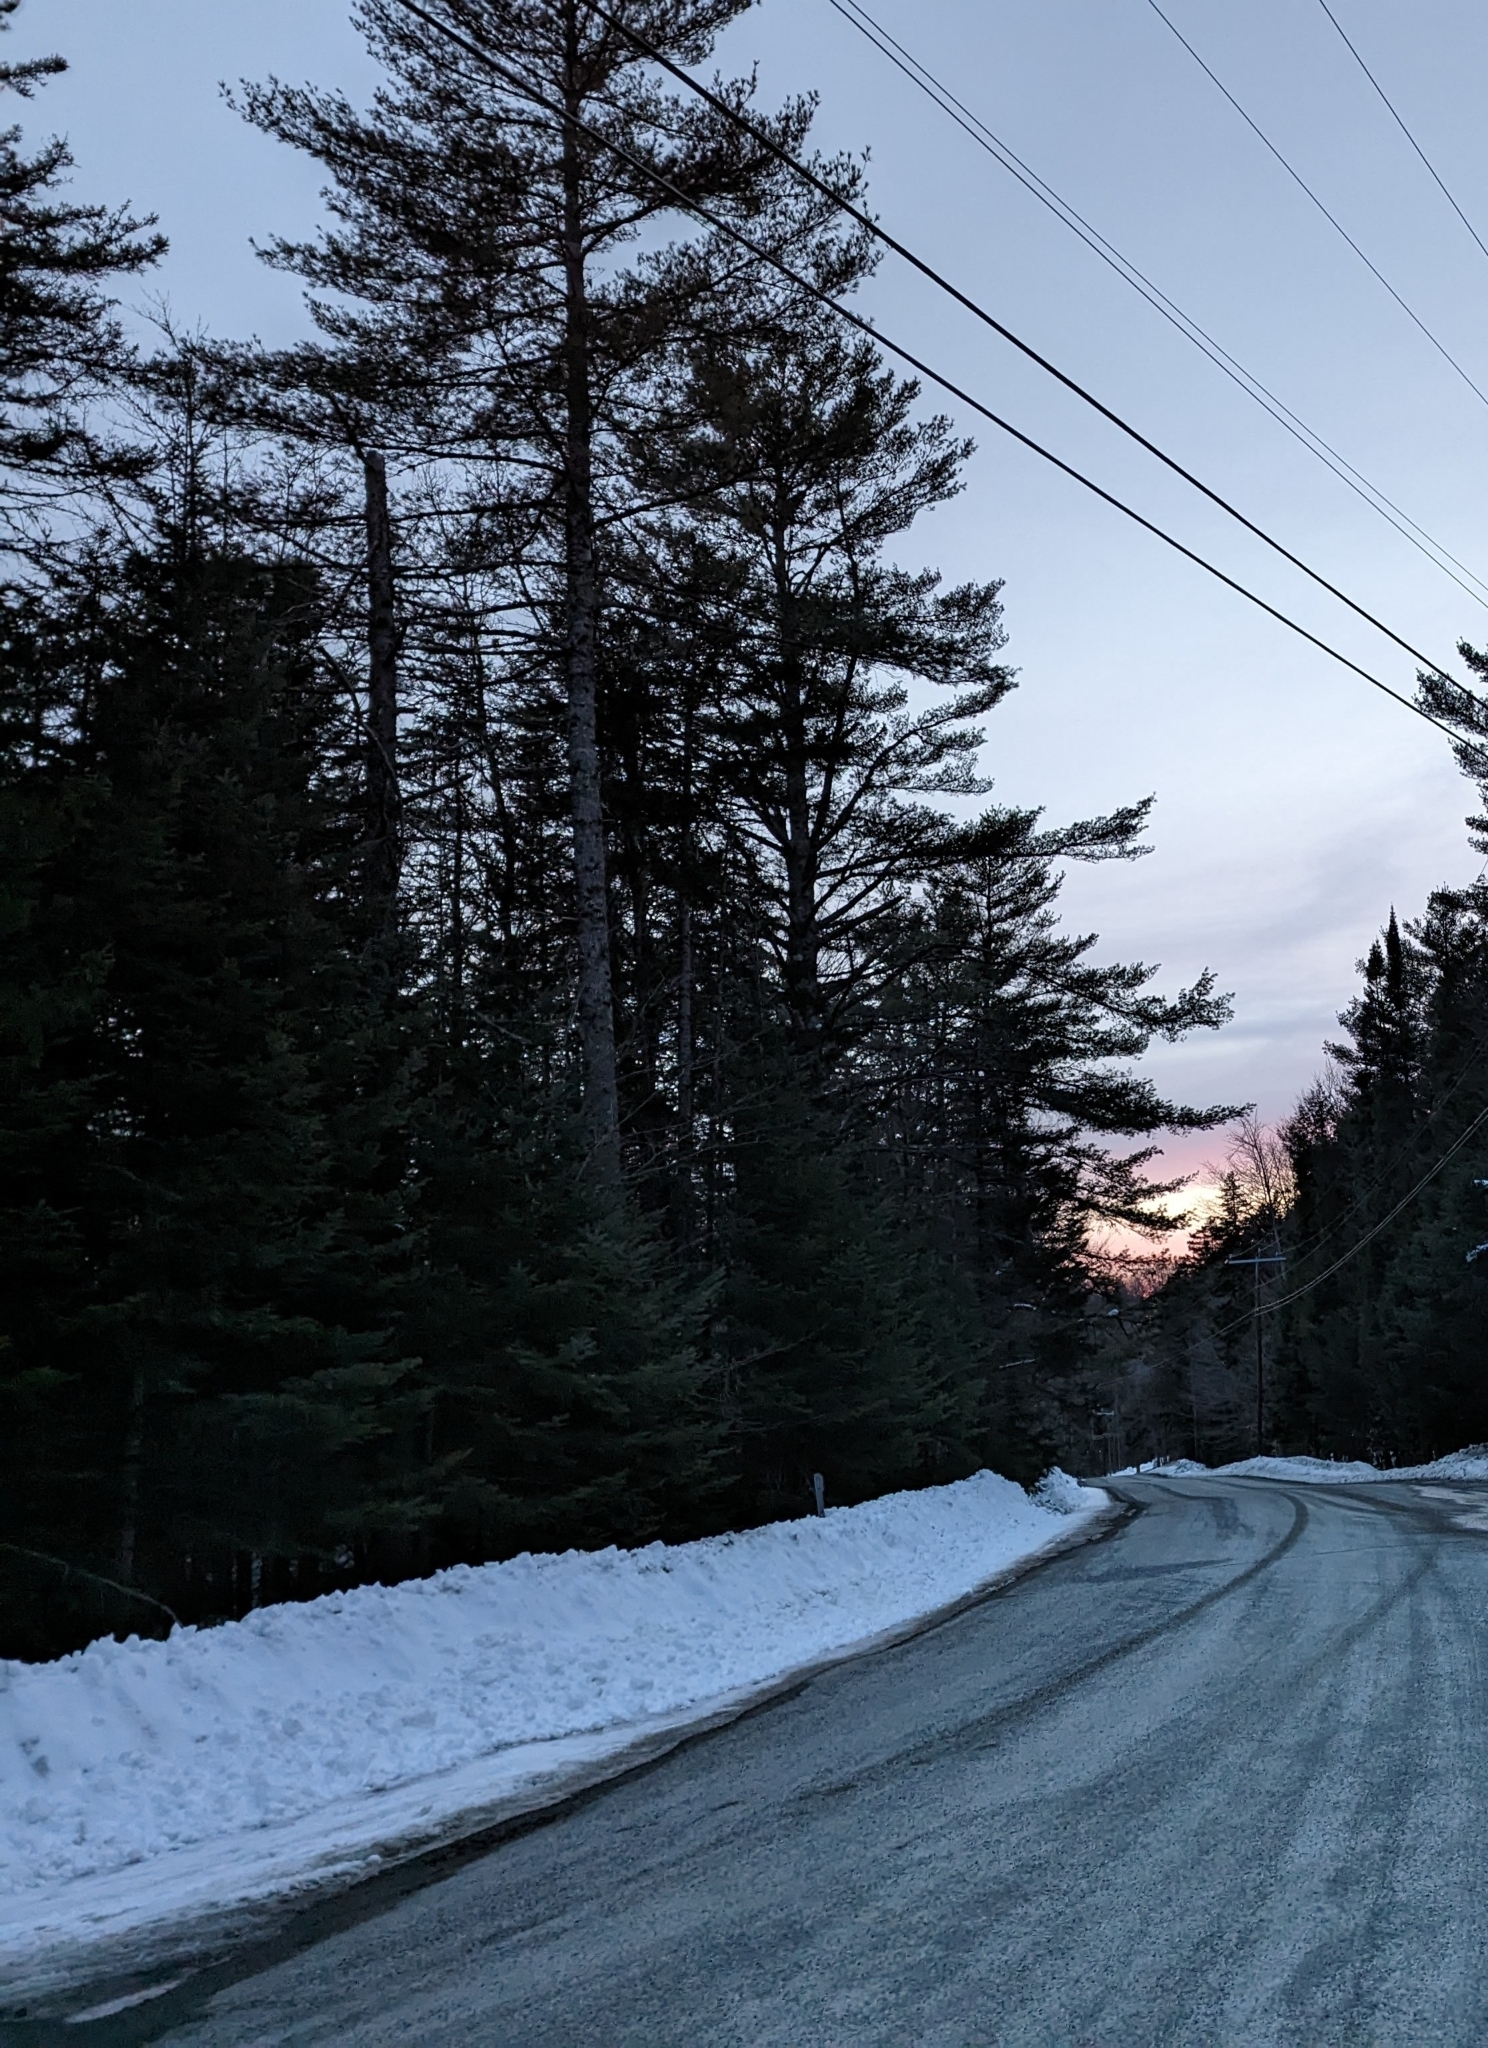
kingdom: Plantae
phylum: Tracheophyta
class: Pinopsida
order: Pinales
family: Pinaceae
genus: Pinus
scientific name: Pinus strobus
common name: Weymouth pine
